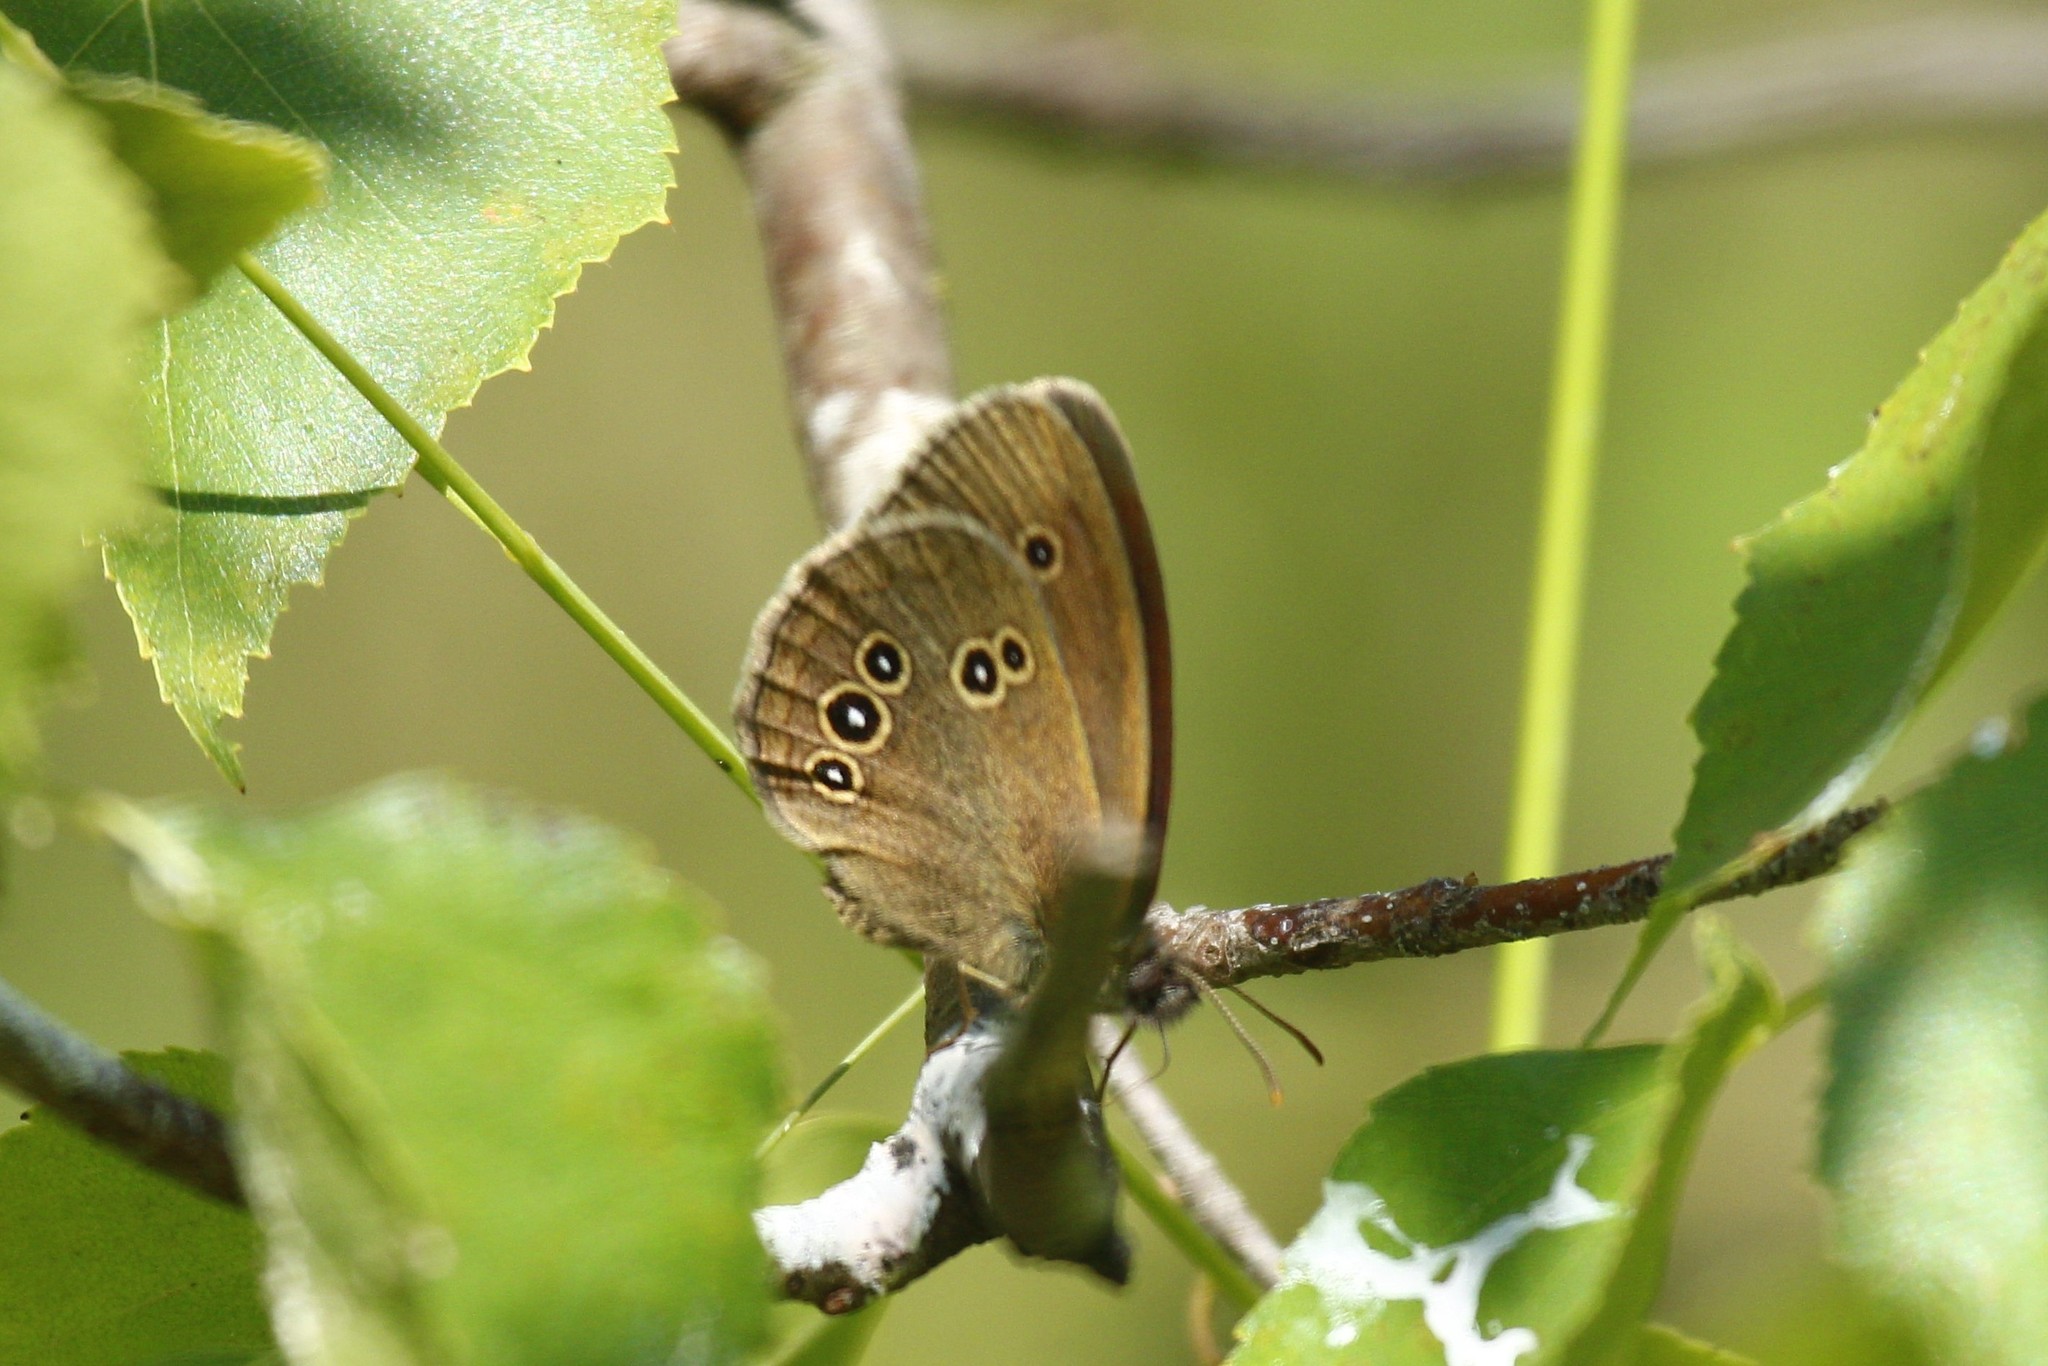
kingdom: Animalia
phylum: Arthropoda
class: Insecta
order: Lepidoptera
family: Nymphalidae
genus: Aphantopus
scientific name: Aphantopus hyperantus
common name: Ringlet
